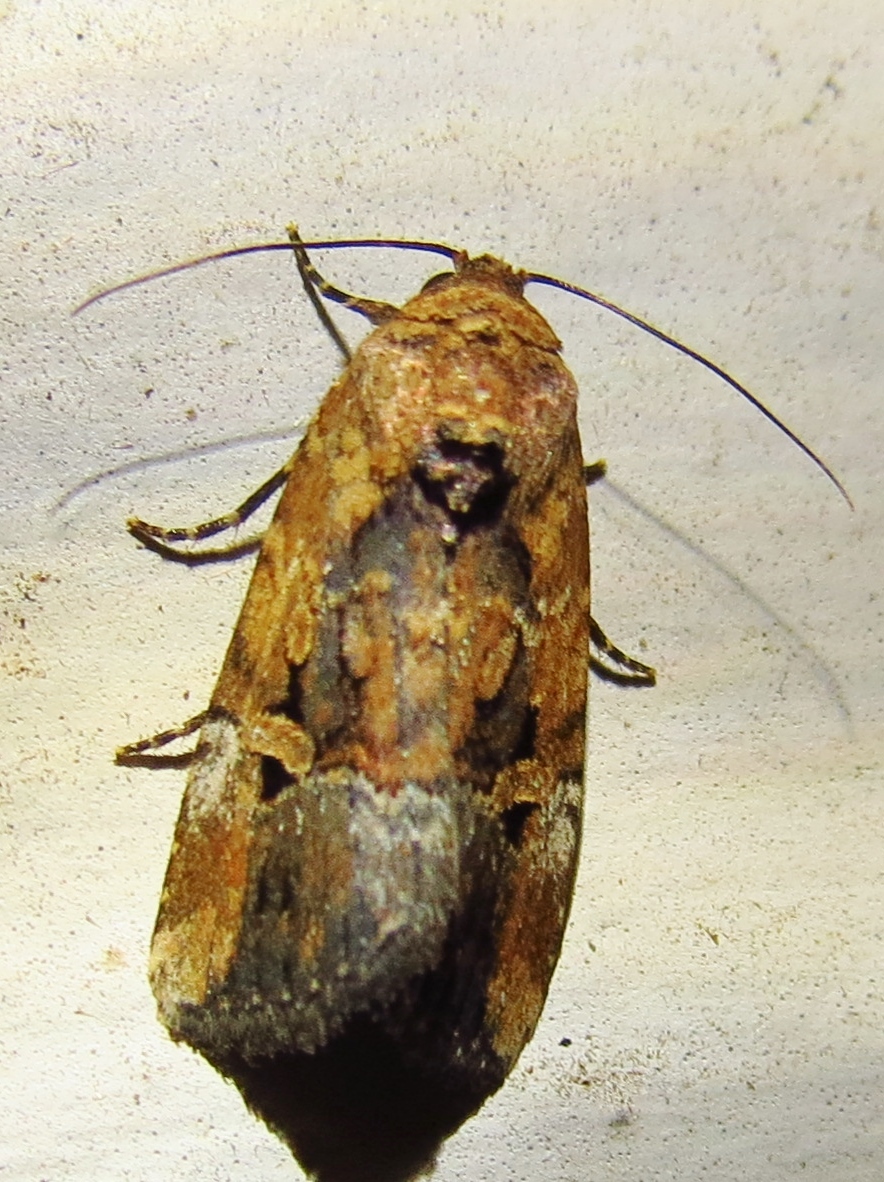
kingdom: Animalia
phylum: Arthropoda
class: Insecta
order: Lepidoptera
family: Noctuidae
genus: Elaphria
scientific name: Elaphria chalcedonia
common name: Chalcedony midget
